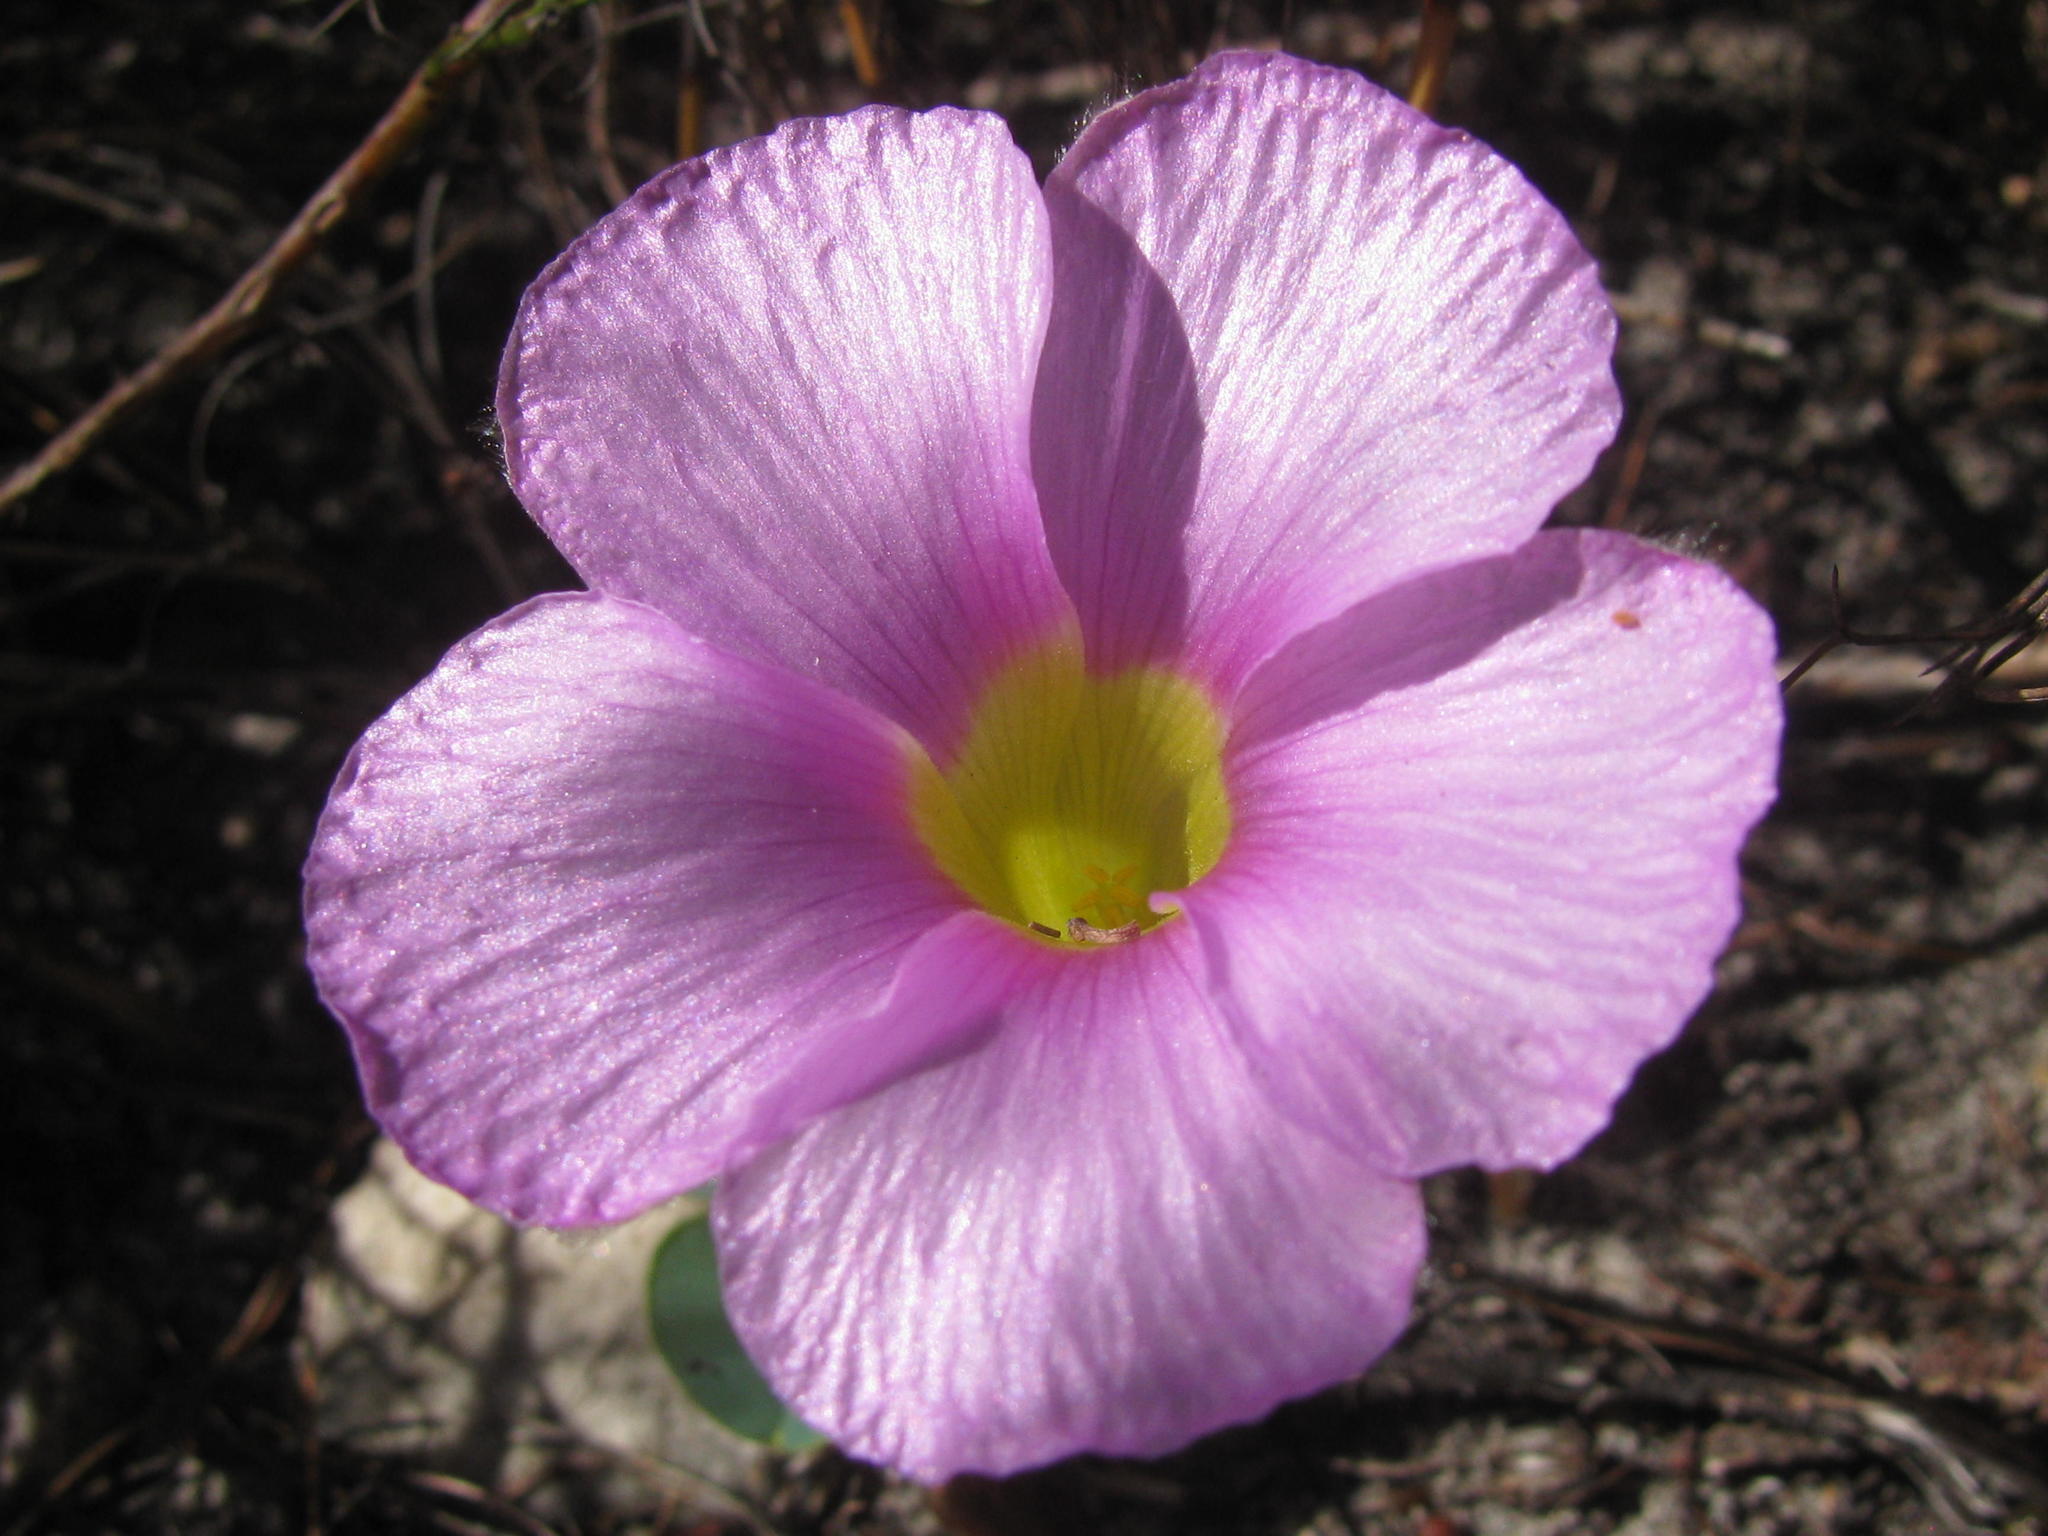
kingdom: Plantae
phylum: Tracheophyta
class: Magnoliopsida
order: Oxalidales
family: Oxalidaceae
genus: Oxalis
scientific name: Oxalis purpurea
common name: Purple woodsorrel
